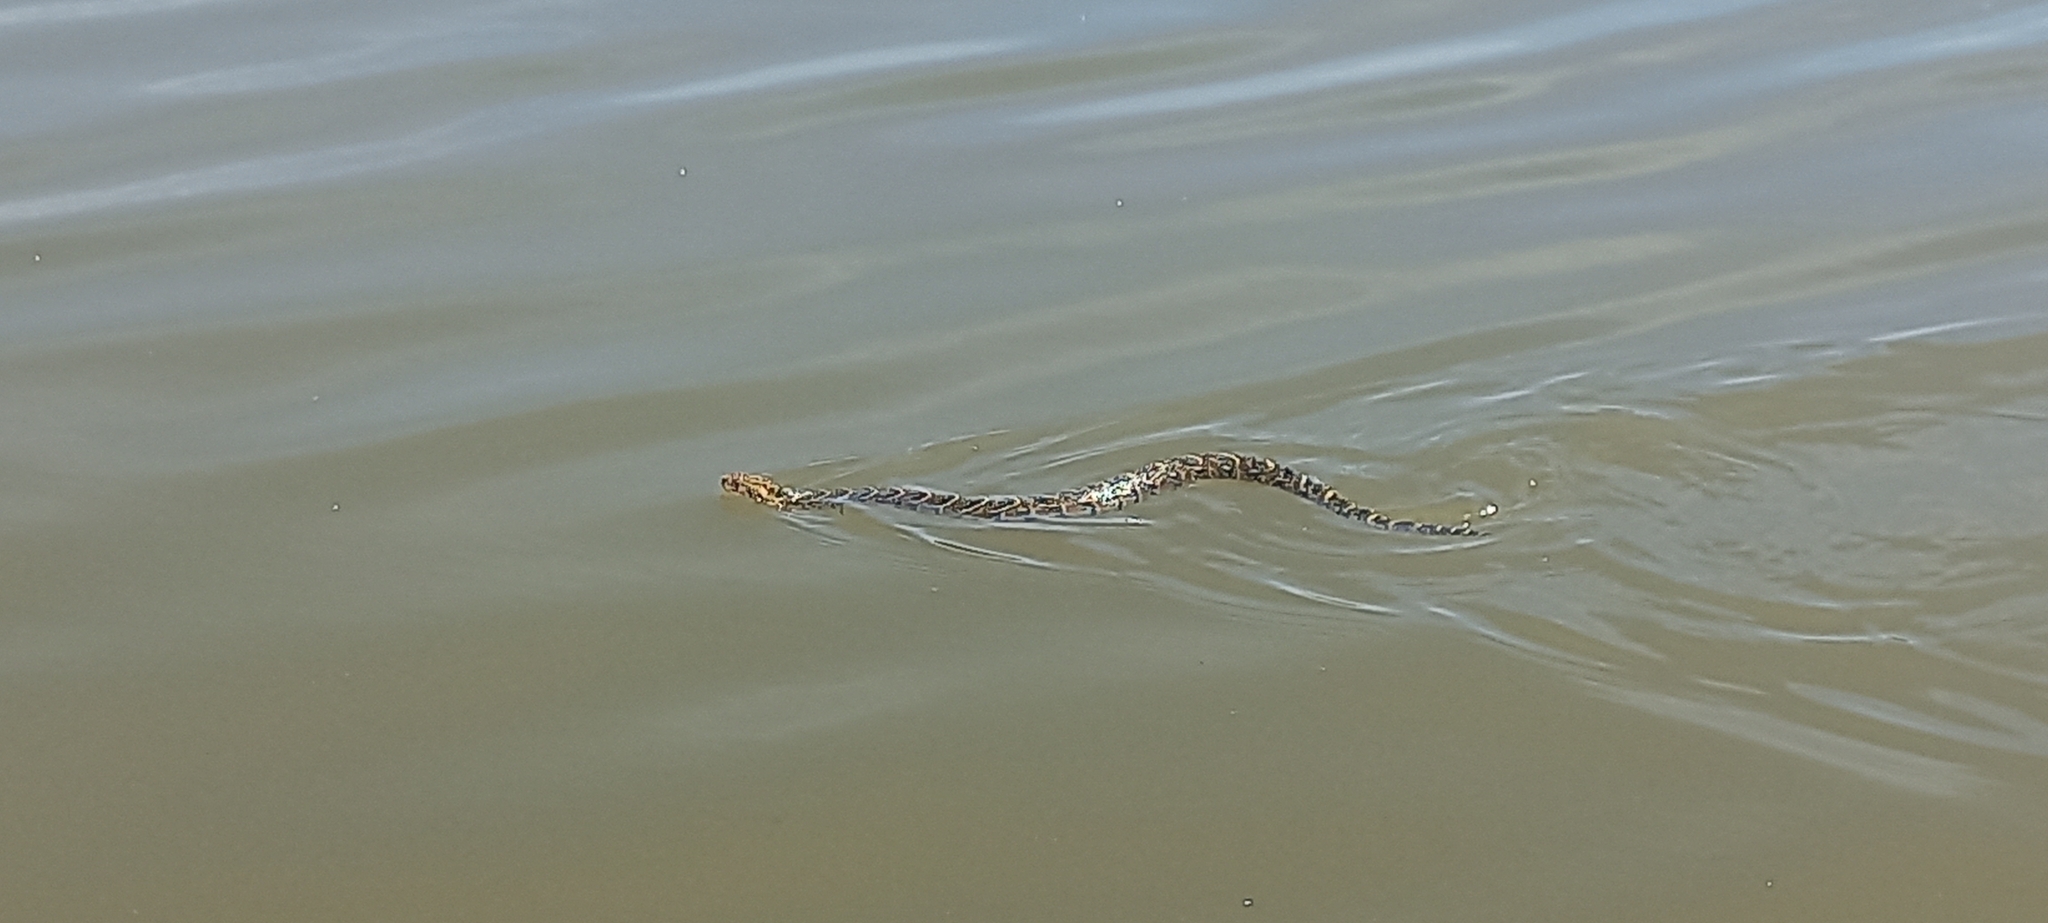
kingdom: Animalia
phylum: Chordata
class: Squamata
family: Viperidae
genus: Bitis
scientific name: Bitis arietans
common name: Puff adder
